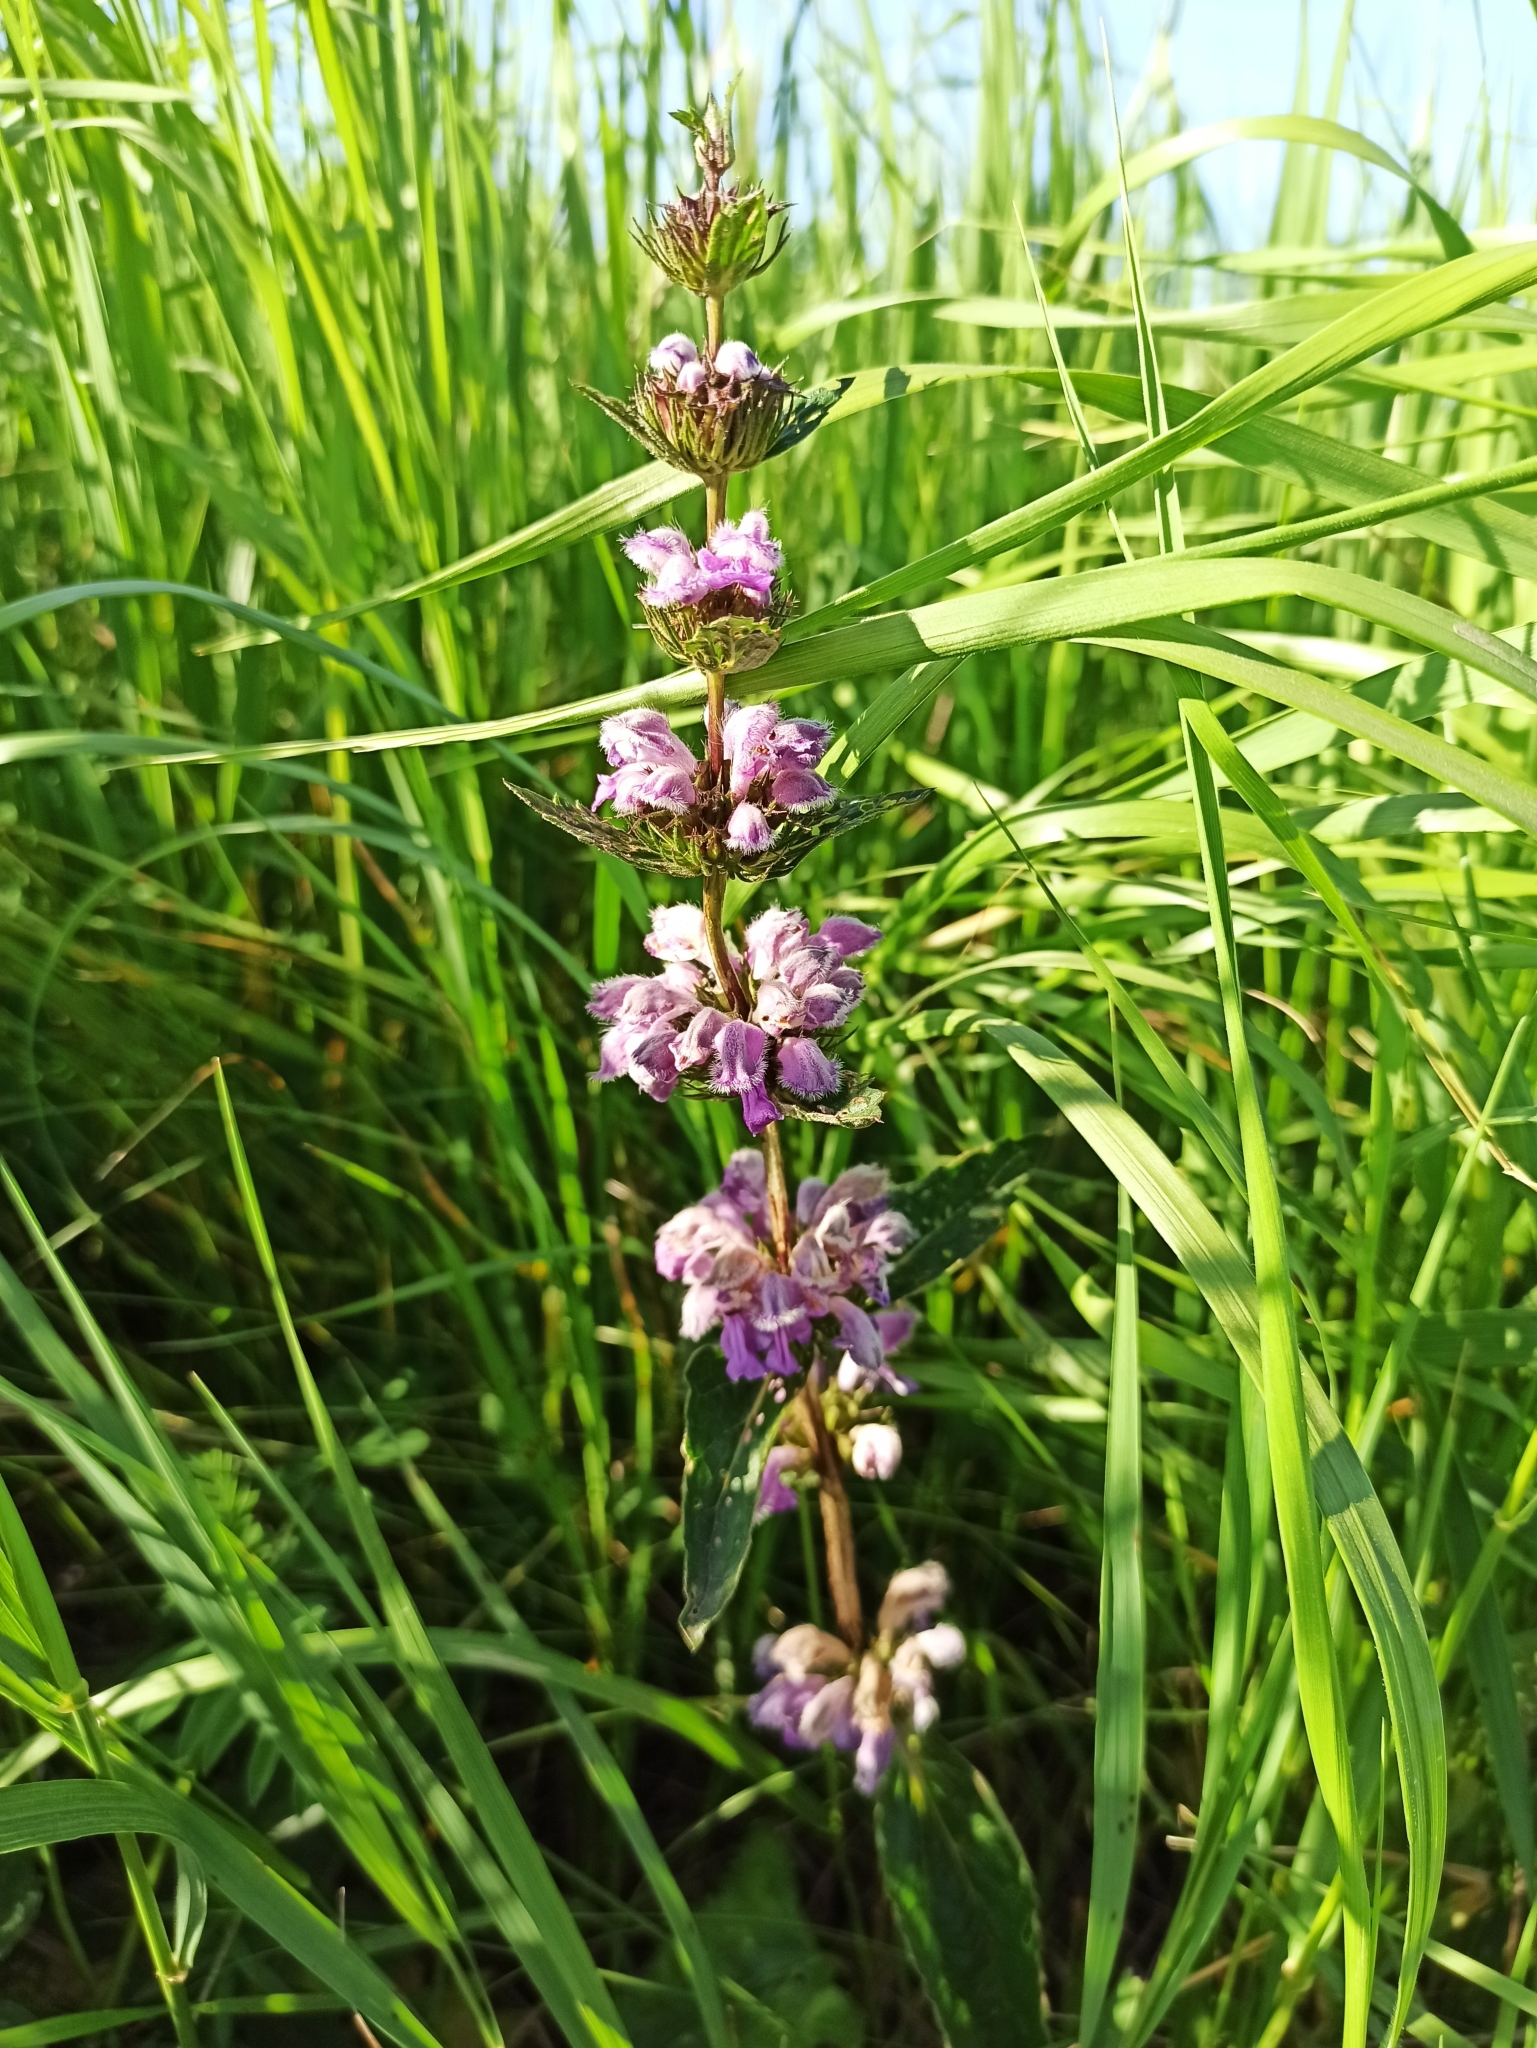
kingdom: Plantae
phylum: Tracheophyta
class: Magnoliopsida
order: Lamiales
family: Lamiaceae
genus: Phlomoides
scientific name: Phlomoides tuberosa
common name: Tuberous jerusalem sage
